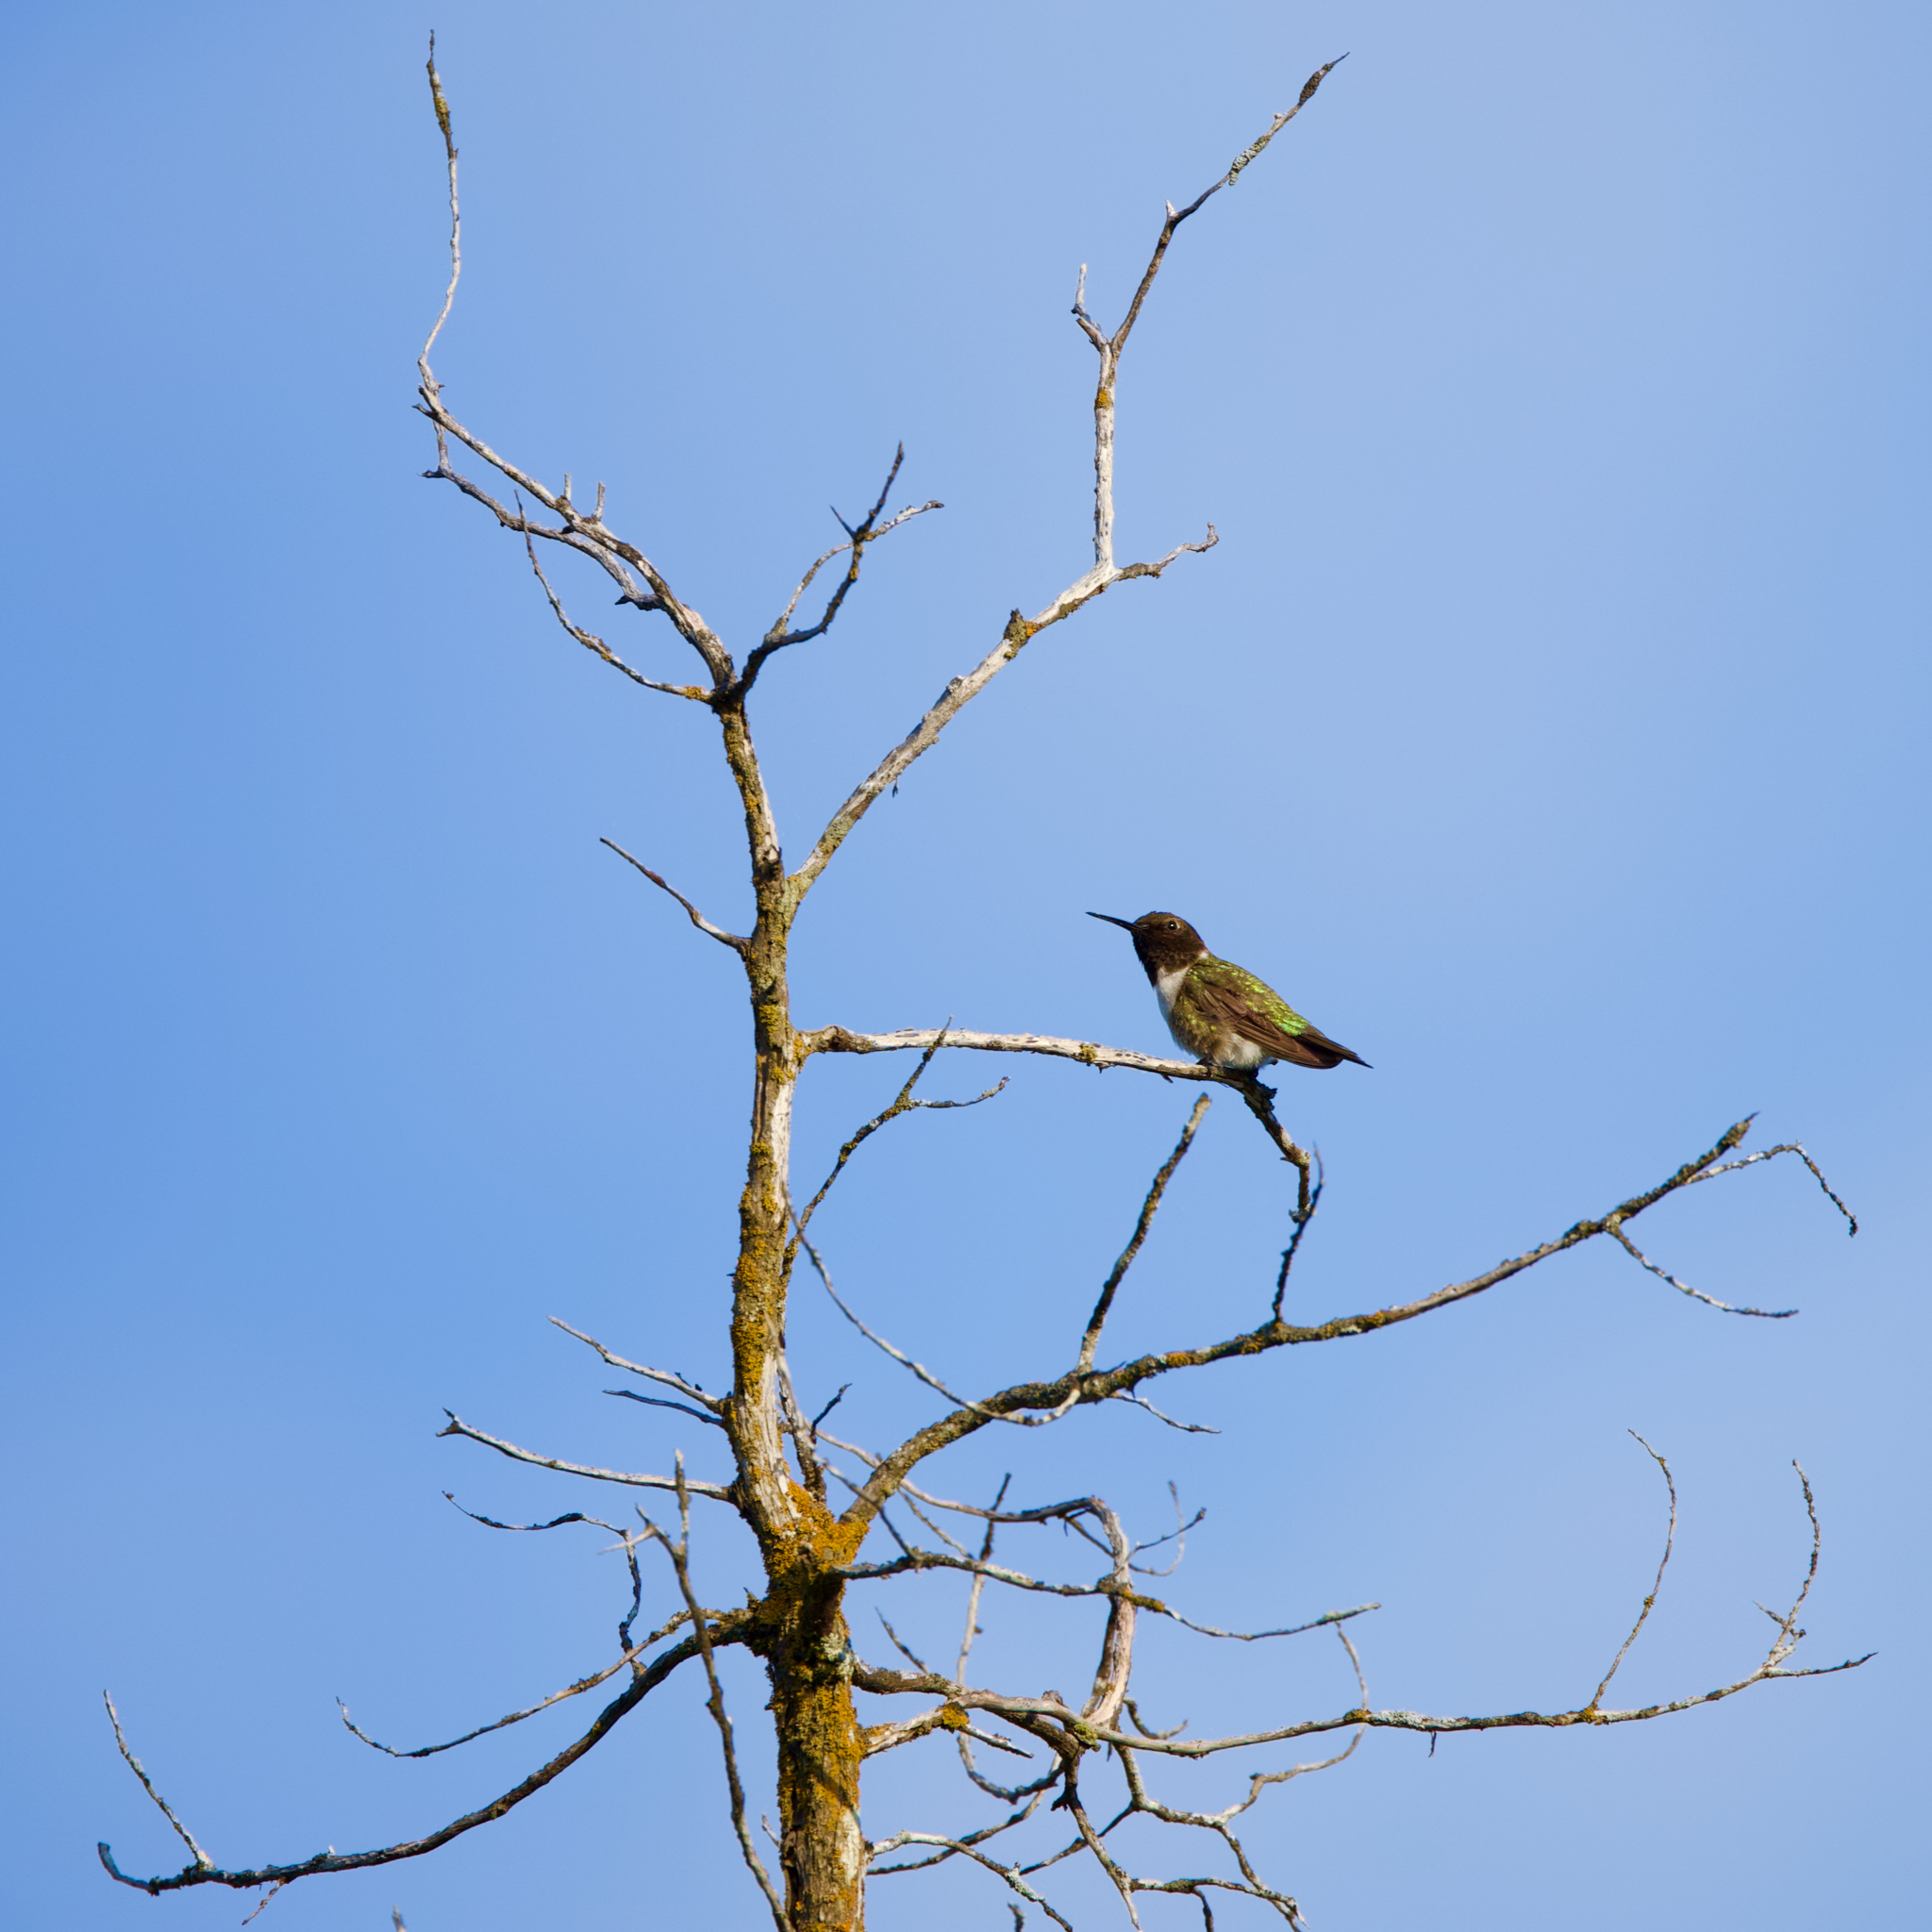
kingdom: Animalia
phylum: Chordata
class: Aves
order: Apodiformes
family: Trochilidae
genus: Archilochus
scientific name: Archilochus alexandri
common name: Black-chinned hummingbird
